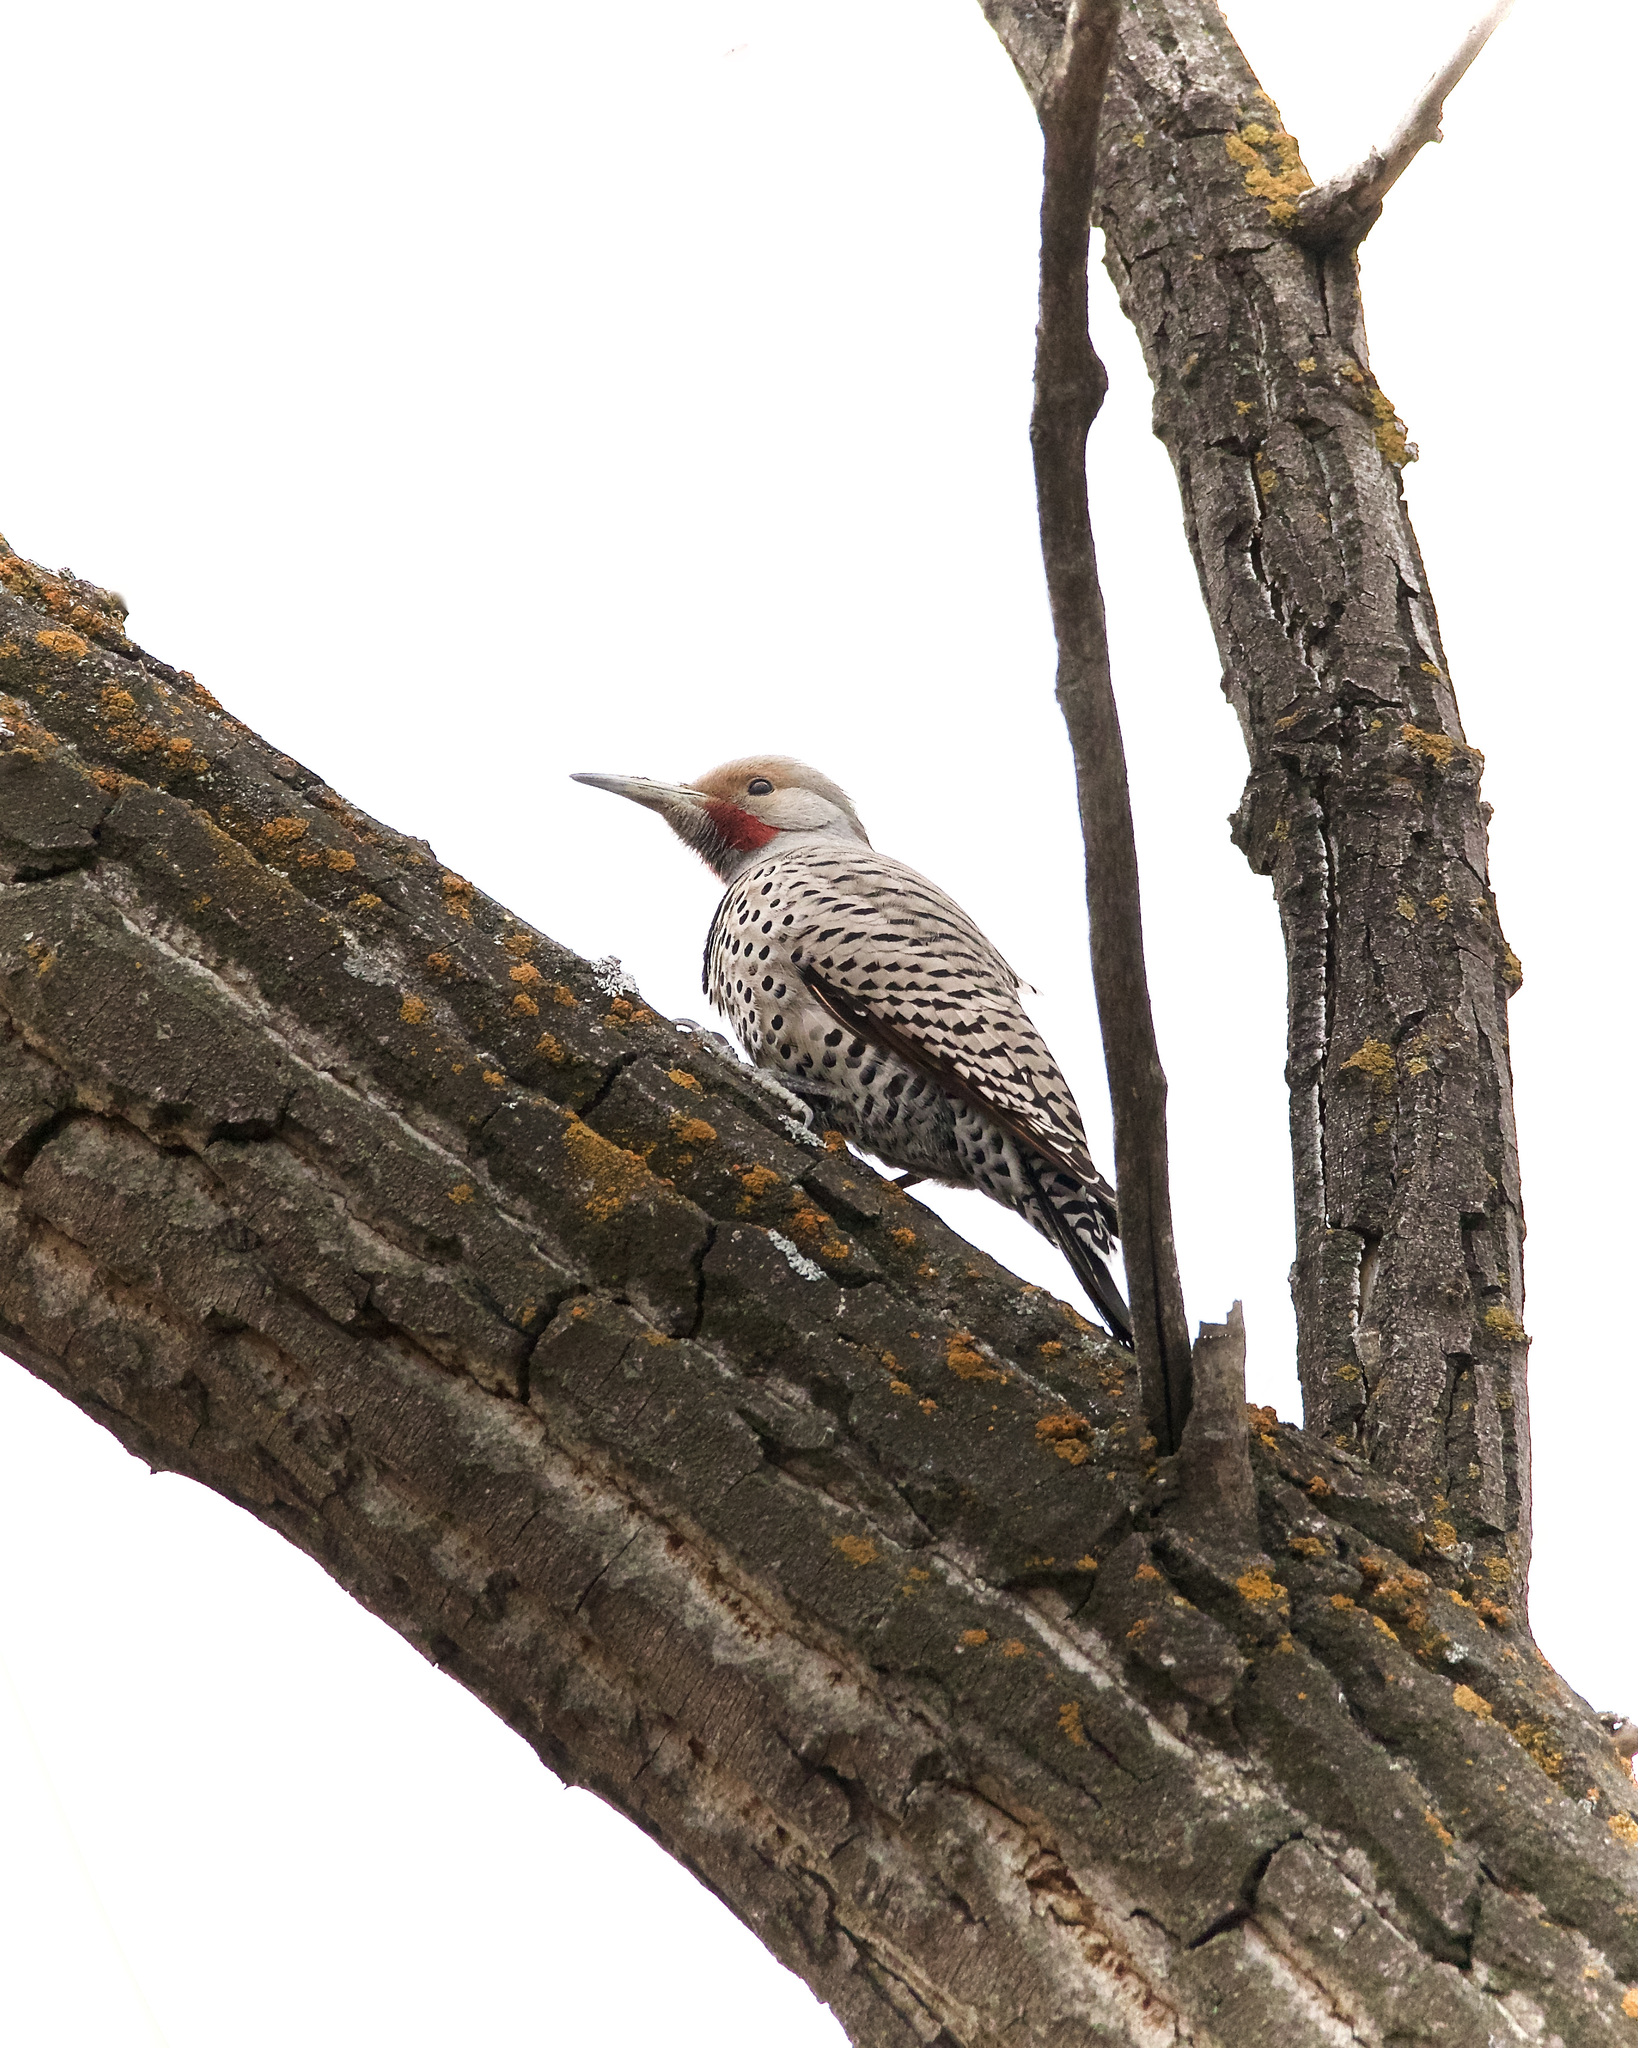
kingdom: Animalia
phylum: Chordata
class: Aves
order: Piciformes
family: Picidae
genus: Colaptes
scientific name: Colaptes auratus
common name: Northern flicker
